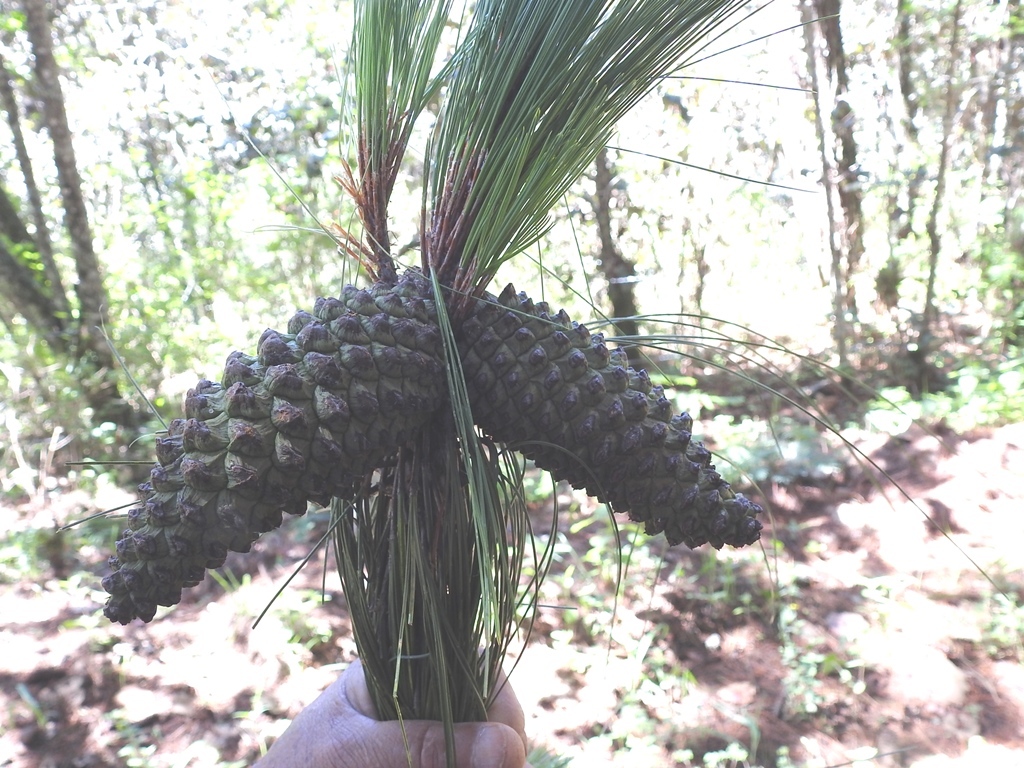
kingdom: Plantae
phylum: Tracheophyta
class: Pinopsida
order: Pinales
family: Pinaceae
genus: Pinus
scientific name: Pinus pseudostrobus
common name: False weymouth pine
